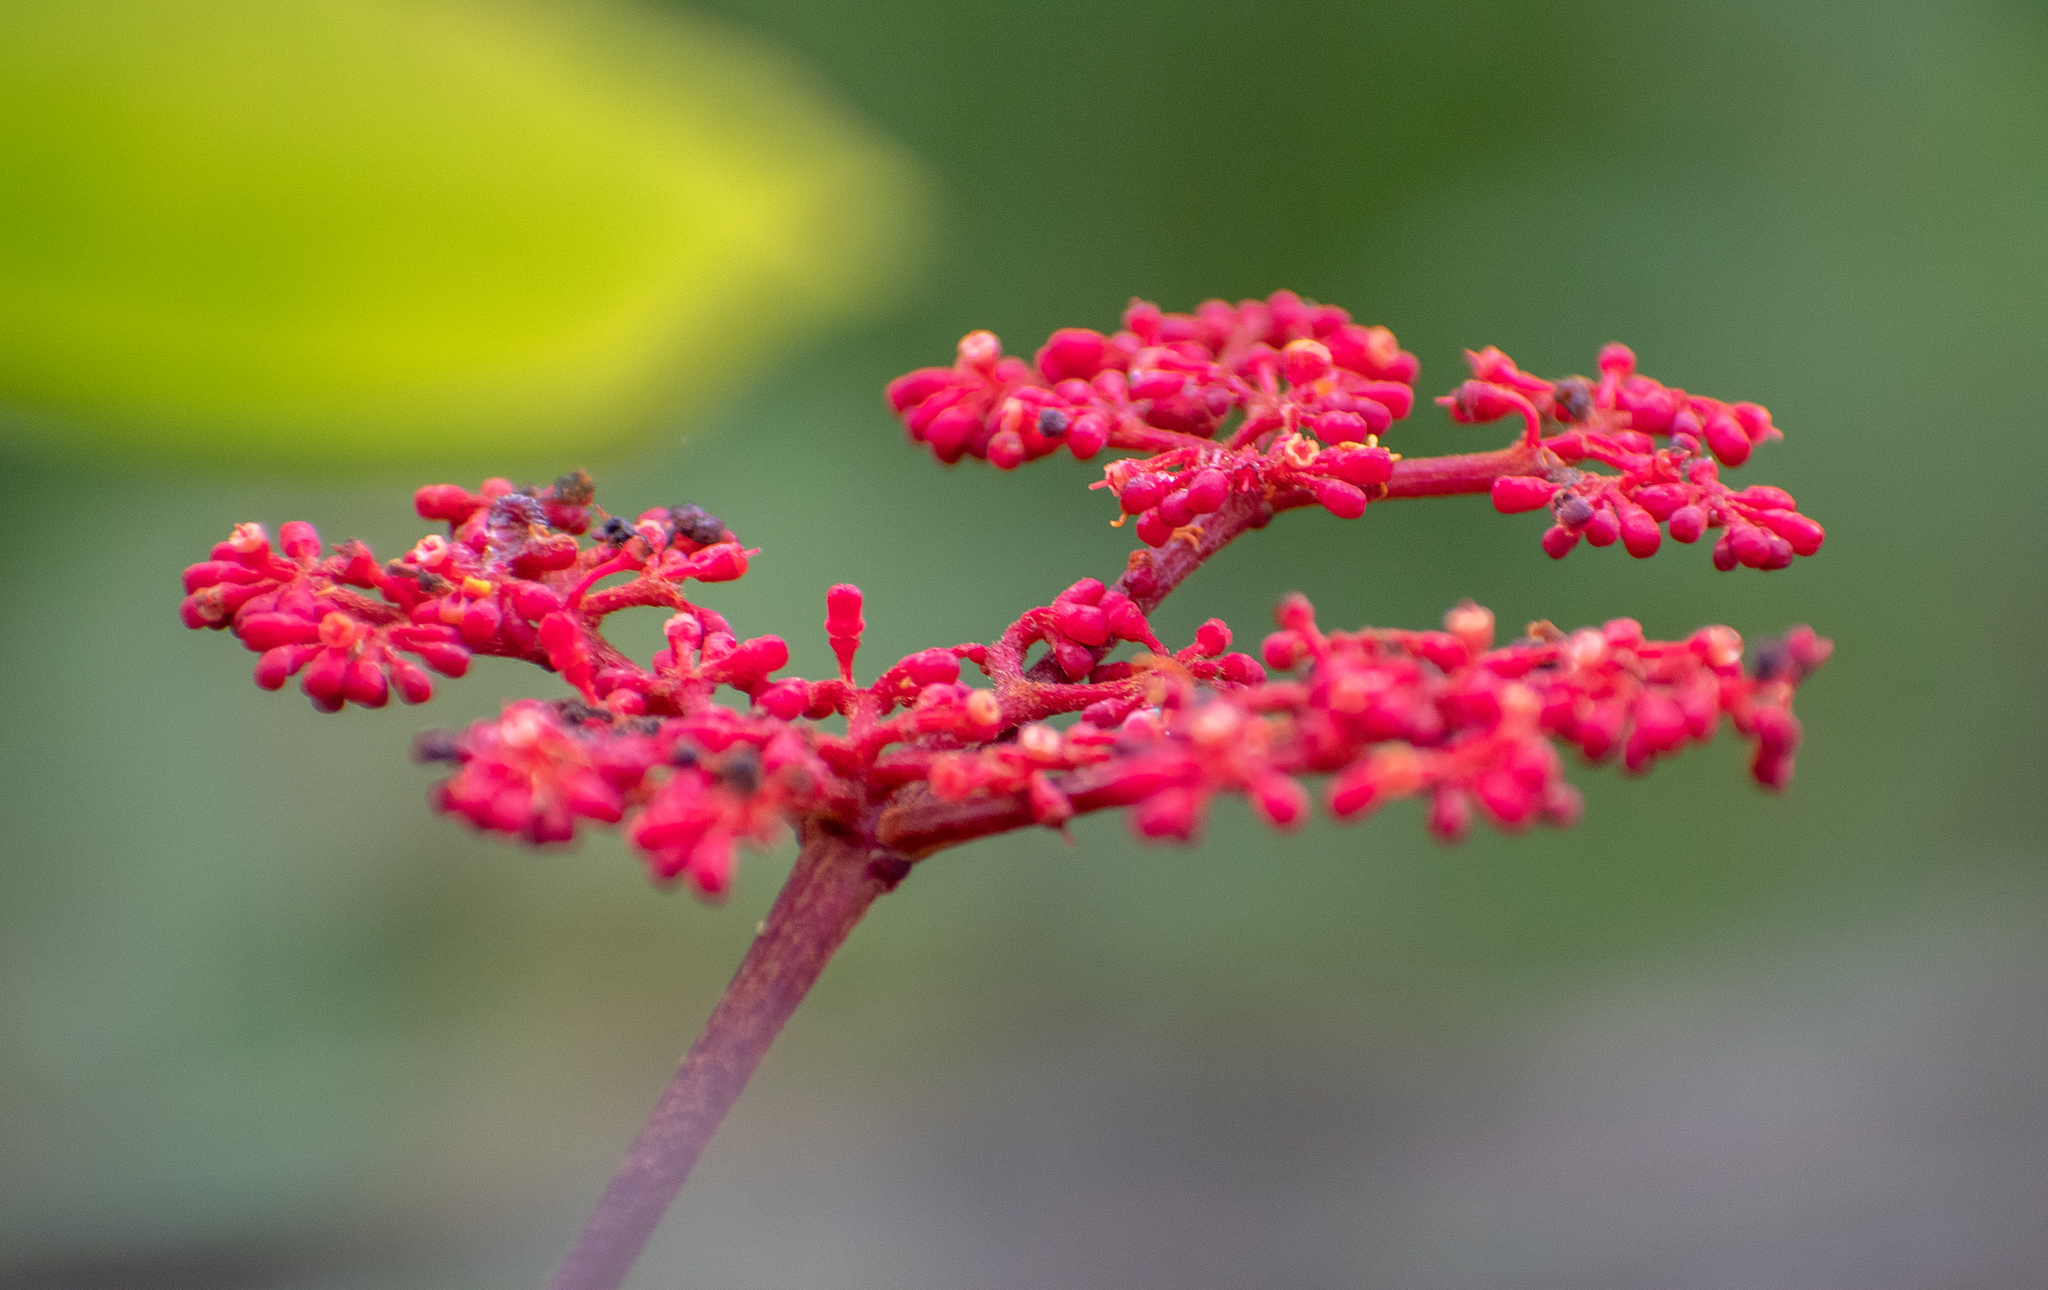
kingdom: Plantae
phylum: Tracheophyta
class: Magnoliopsida
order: Vitales
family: Vitaceae
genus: Cissus
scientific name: Cissus erosa
